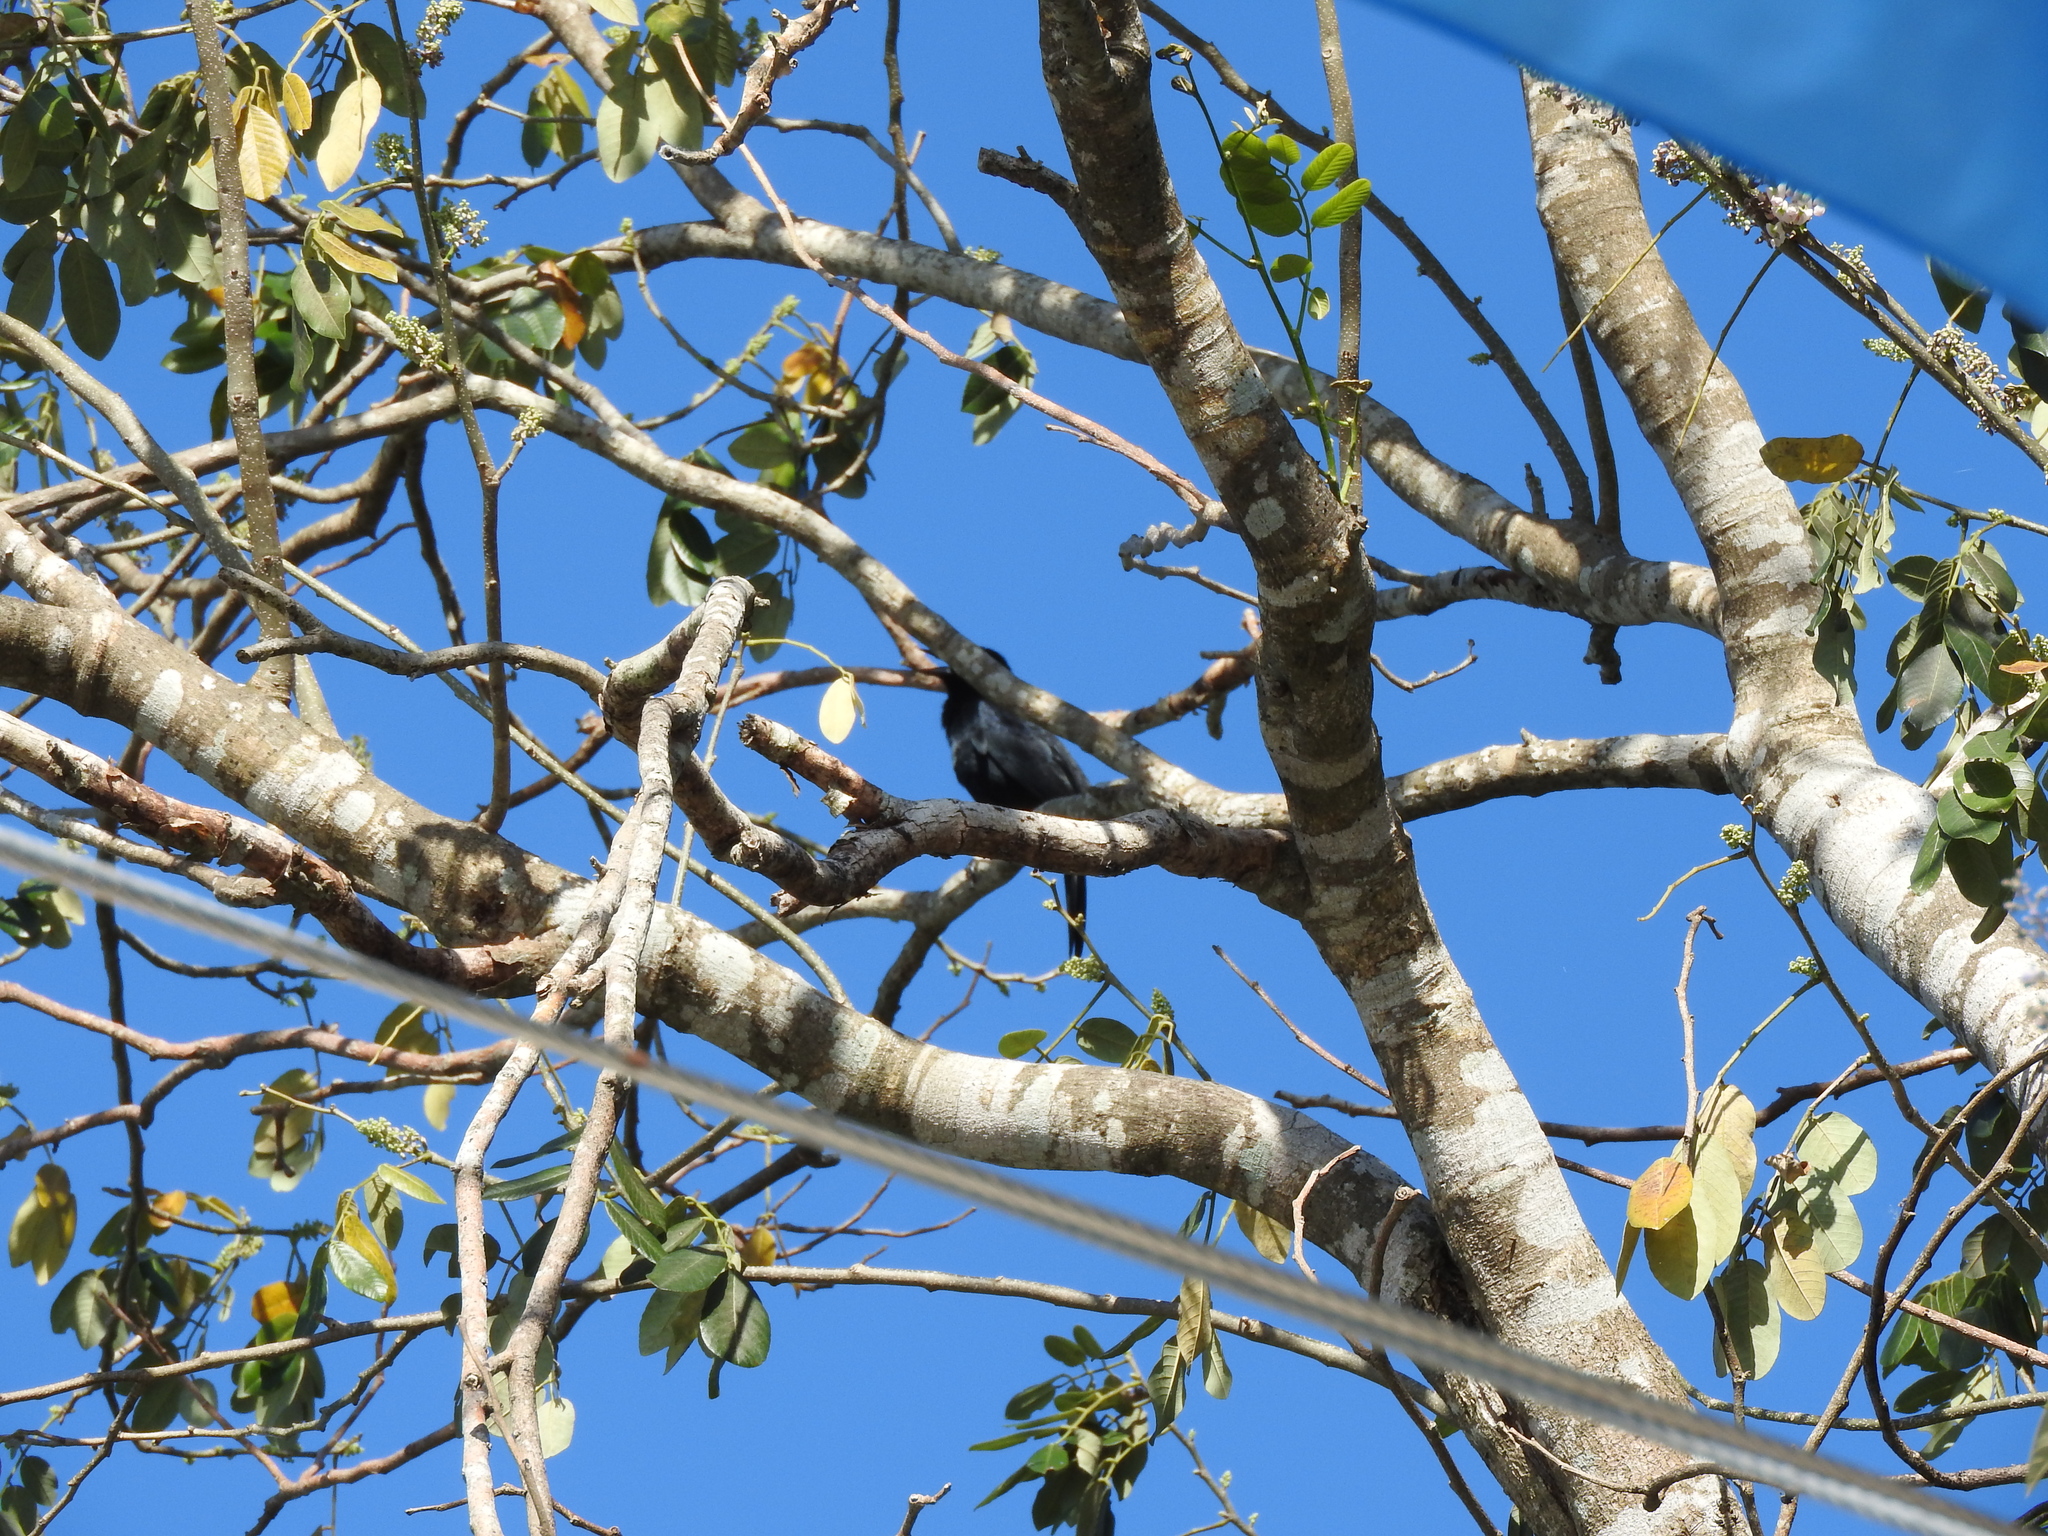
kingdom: Animalia
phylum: Chordata
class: Aves
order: Passeriformes
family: Icteridae
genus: Dives
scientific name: Dives dives
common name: Melodious blackbird
